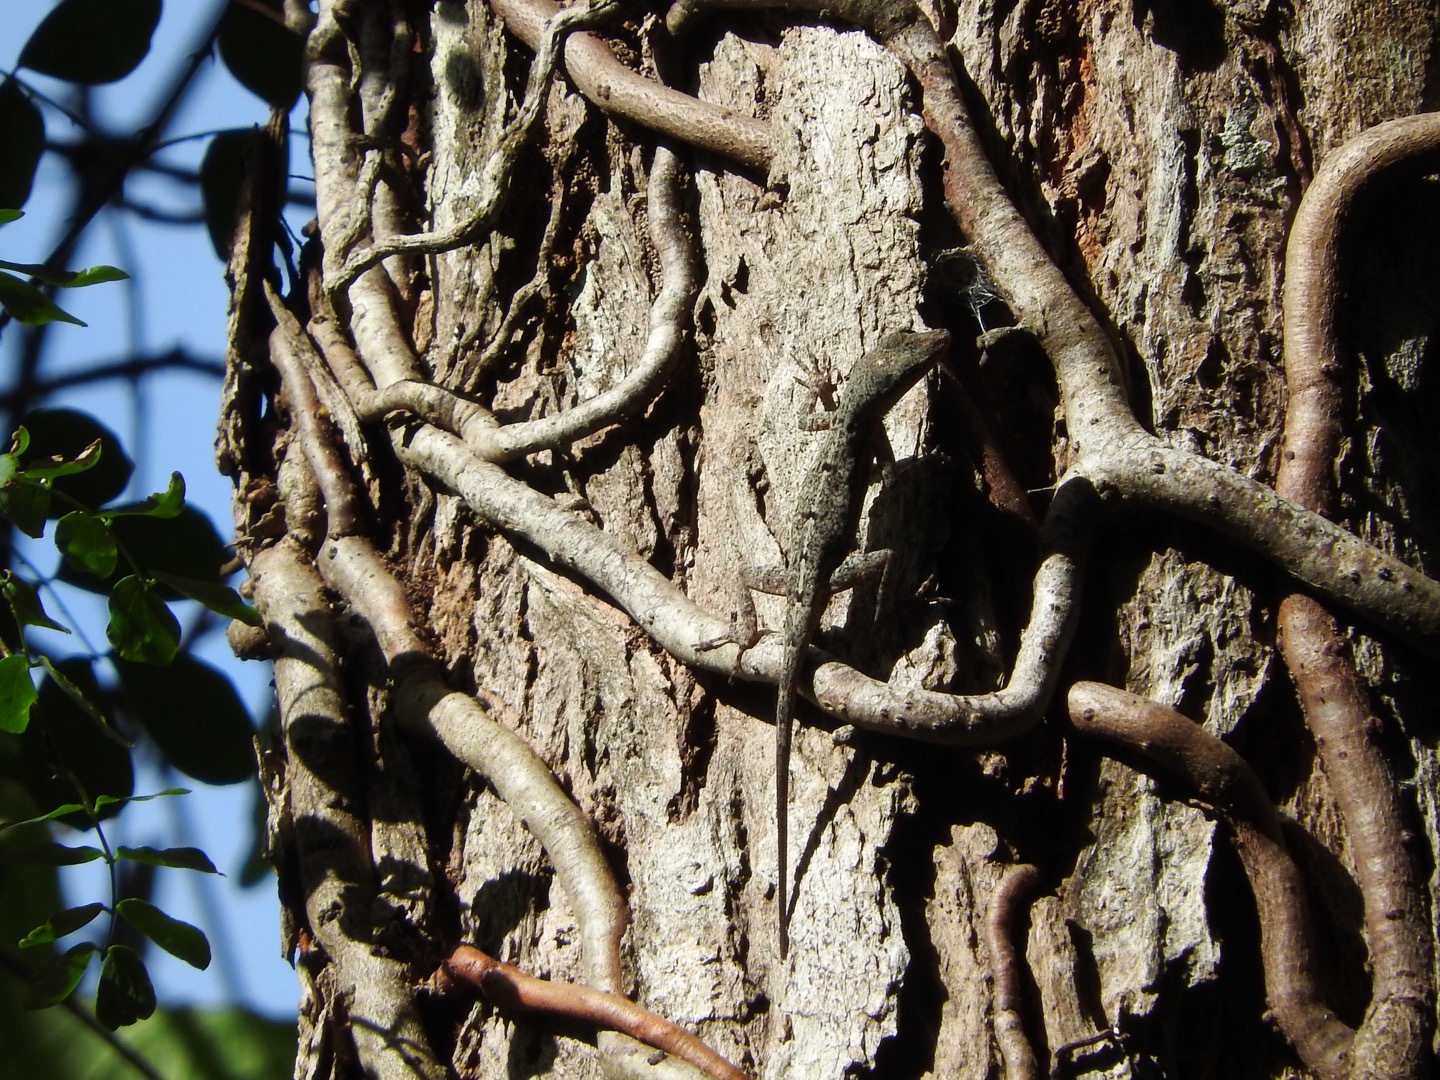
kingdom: Animalia
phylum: Chordata
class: Squamata
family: Dactyloidae
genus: Anolis
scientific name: Anolis stratulus
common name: Banded anole
